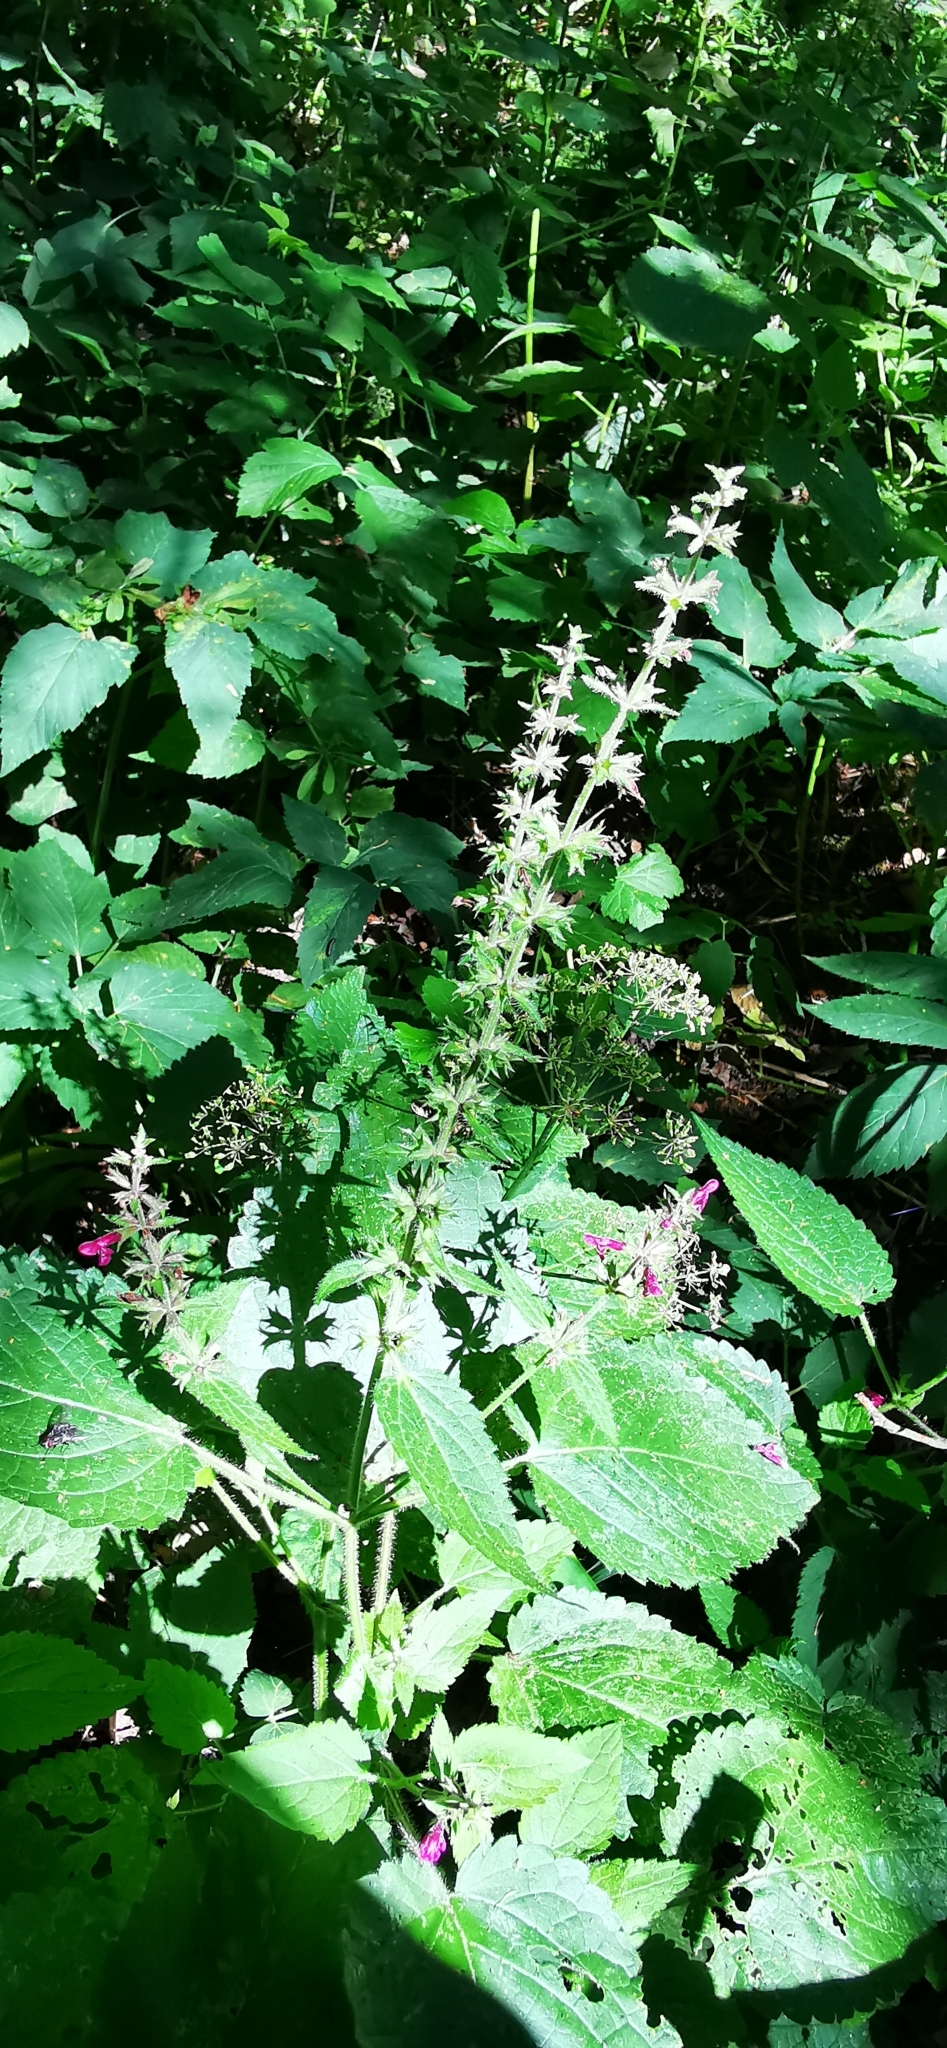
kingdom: Plantae
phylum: Tracheophyta
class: Magnoliopsida
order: Lamiales
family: Lamiaceae
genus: Stachys
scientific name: Stachys sylvatica
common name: Hedge woundwort
